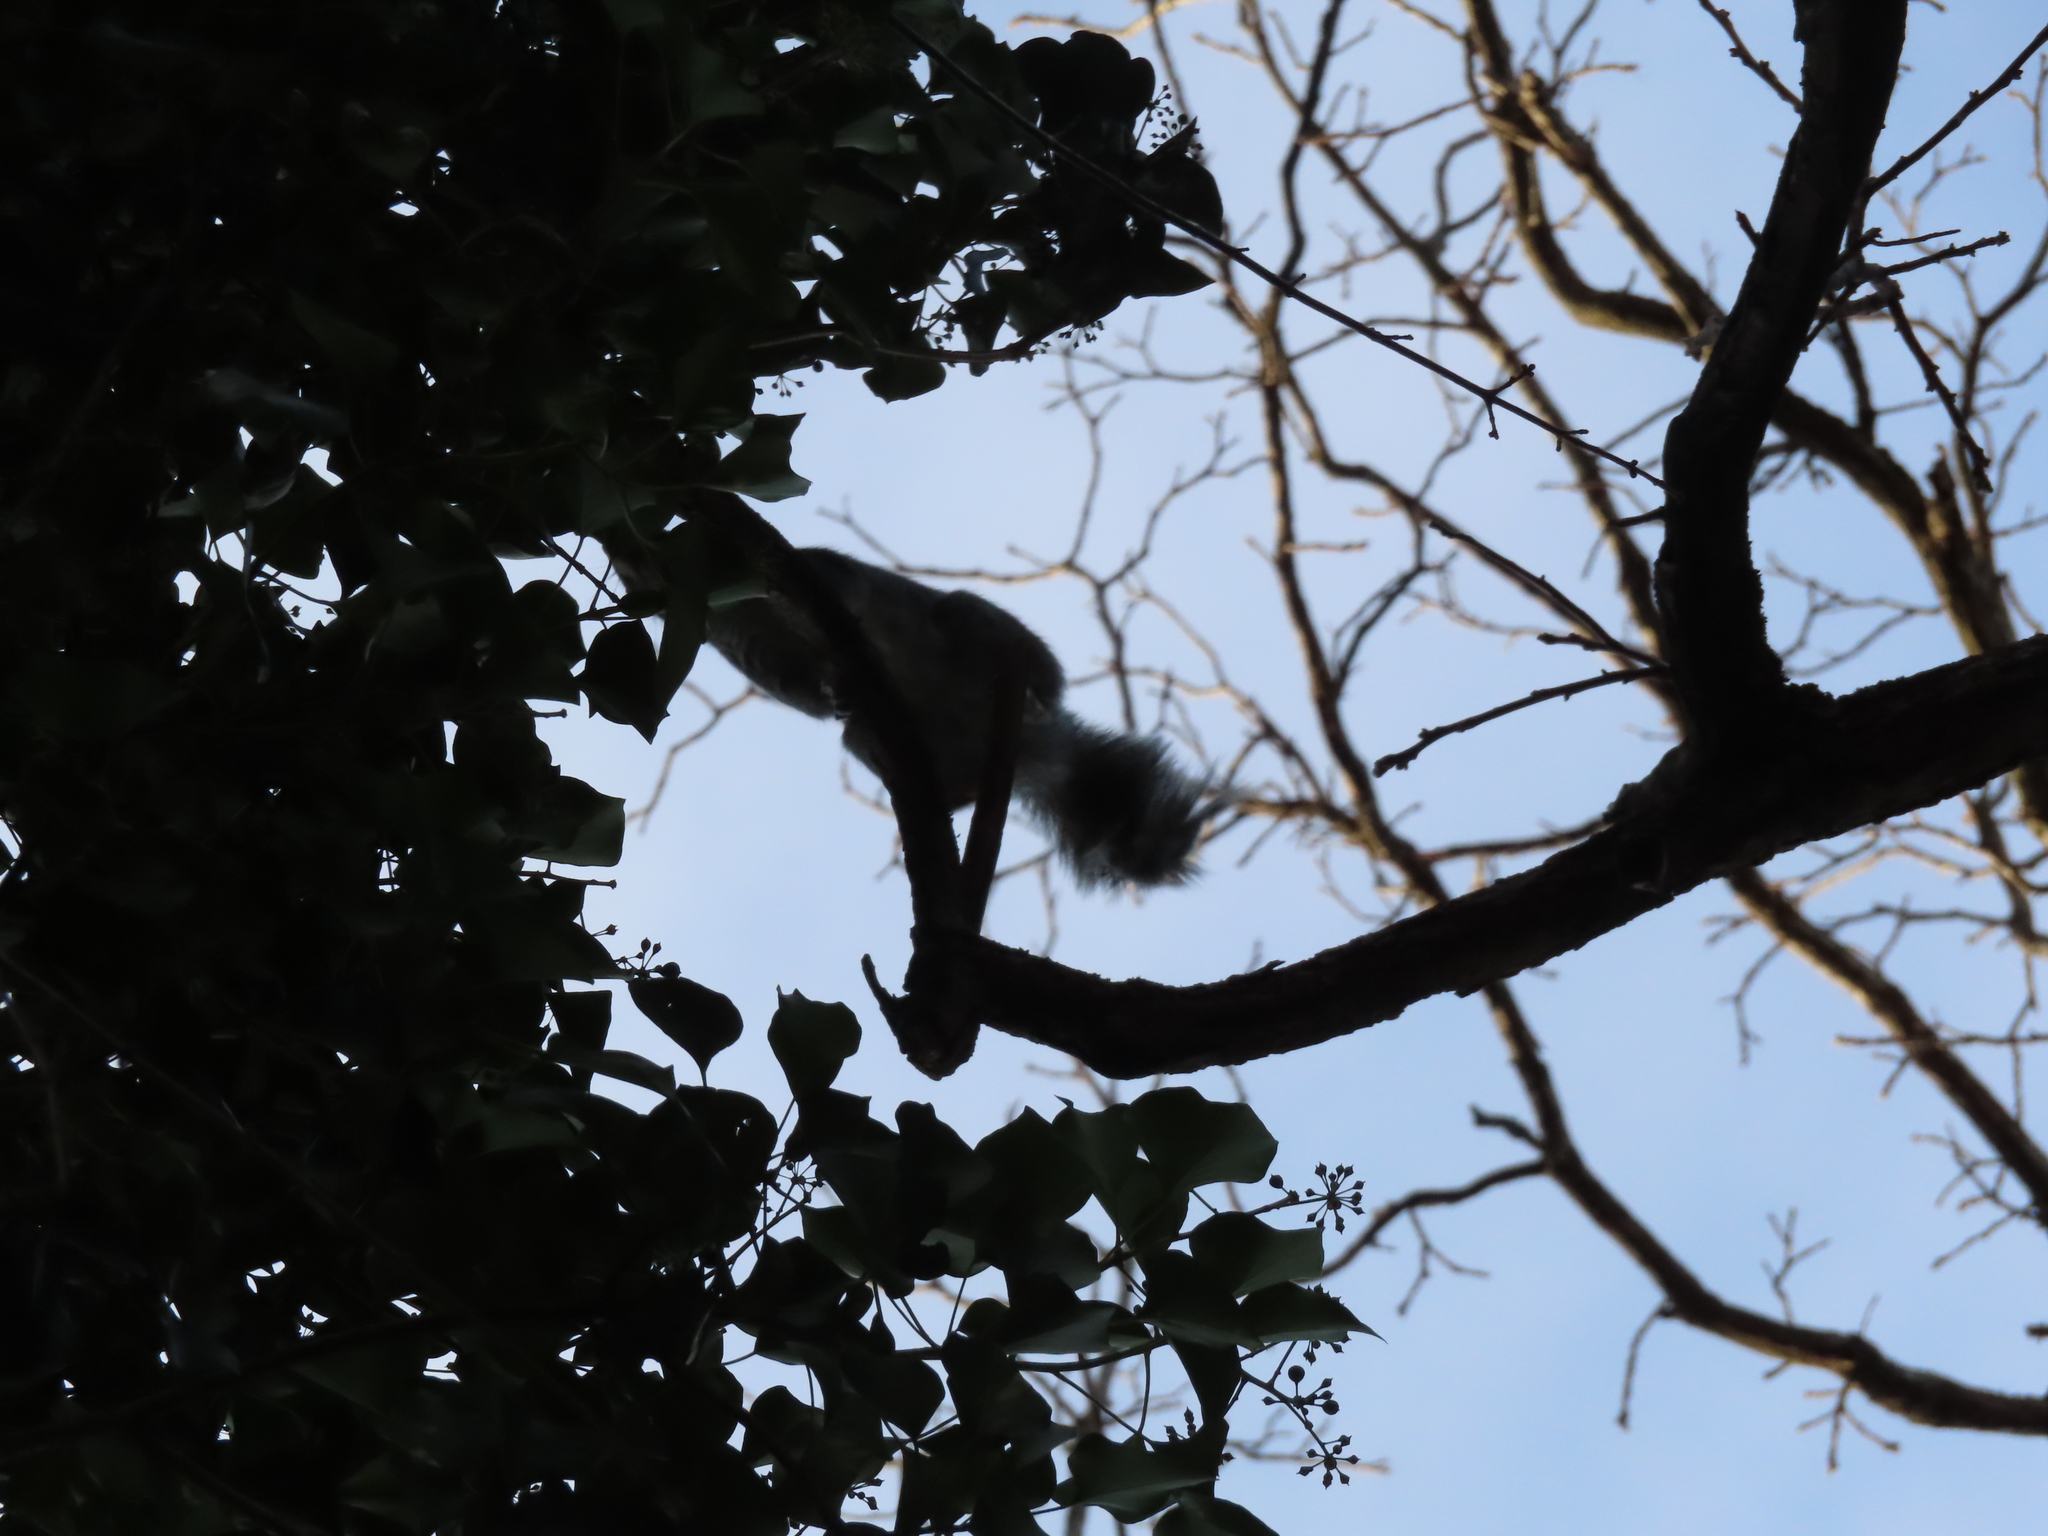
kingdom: Animalia
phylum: Chordata
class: Mammalia
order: Rodentia
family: Sciuridae
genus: Sciurus
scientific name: Sciurus carolinensis
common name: Eastern gray squirrel
